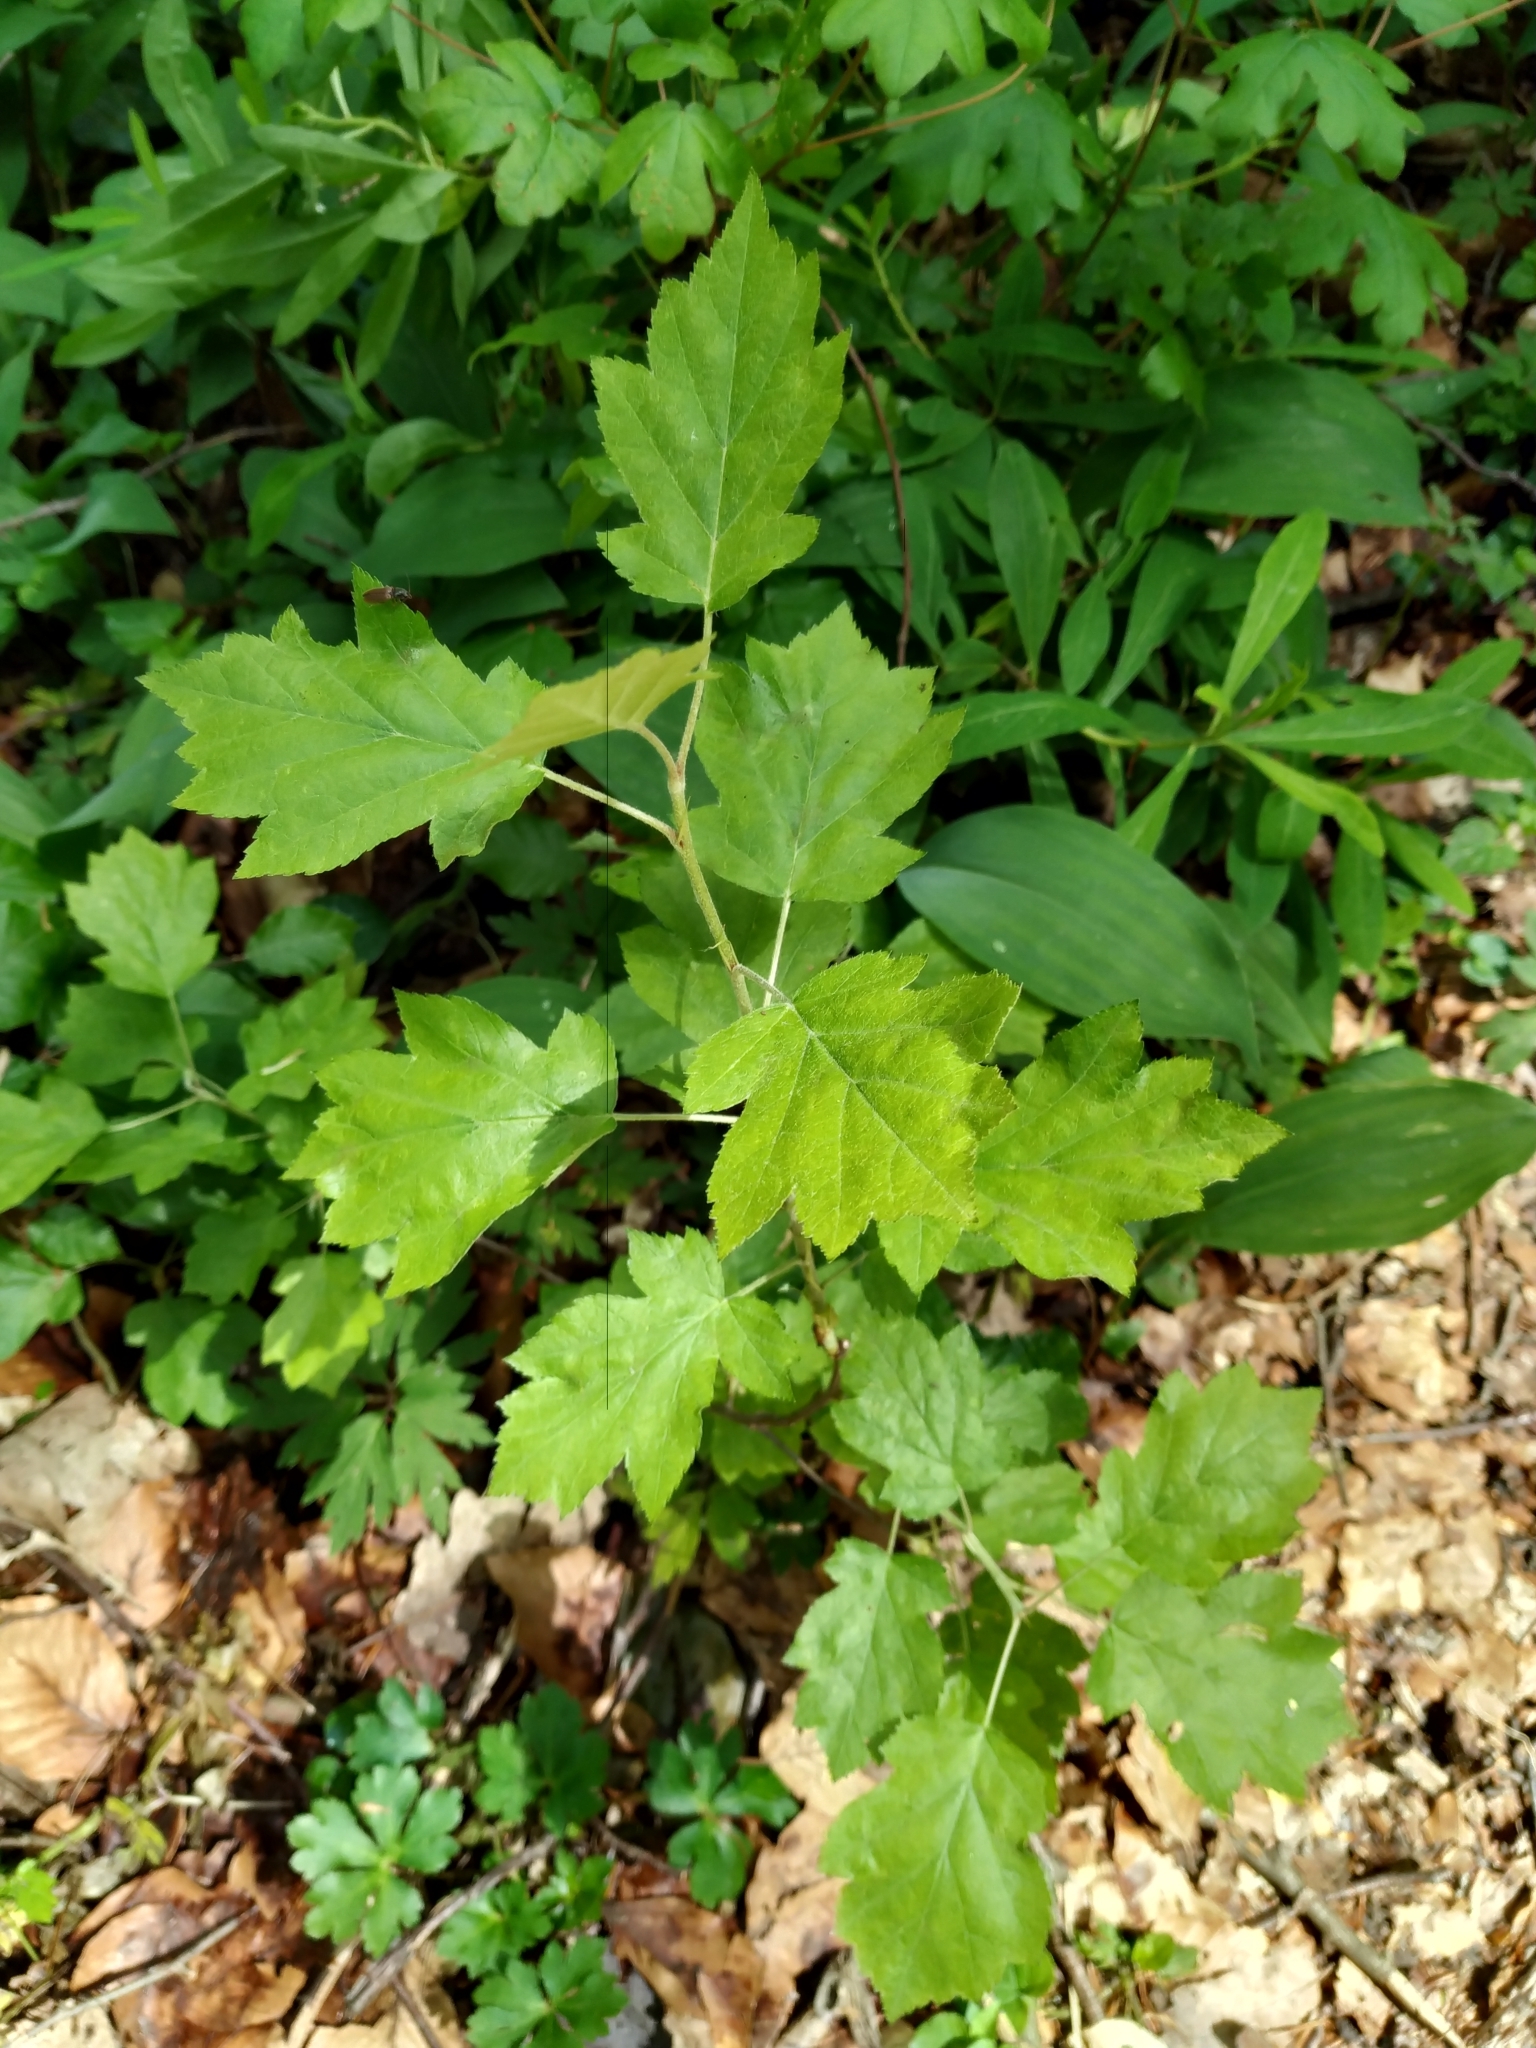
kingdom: Plantae
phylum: Tracheophyta
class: Magnoliopsida
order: Rosales
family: Rosaceae
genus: Torminalis
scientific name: Torminalis glaberrima
